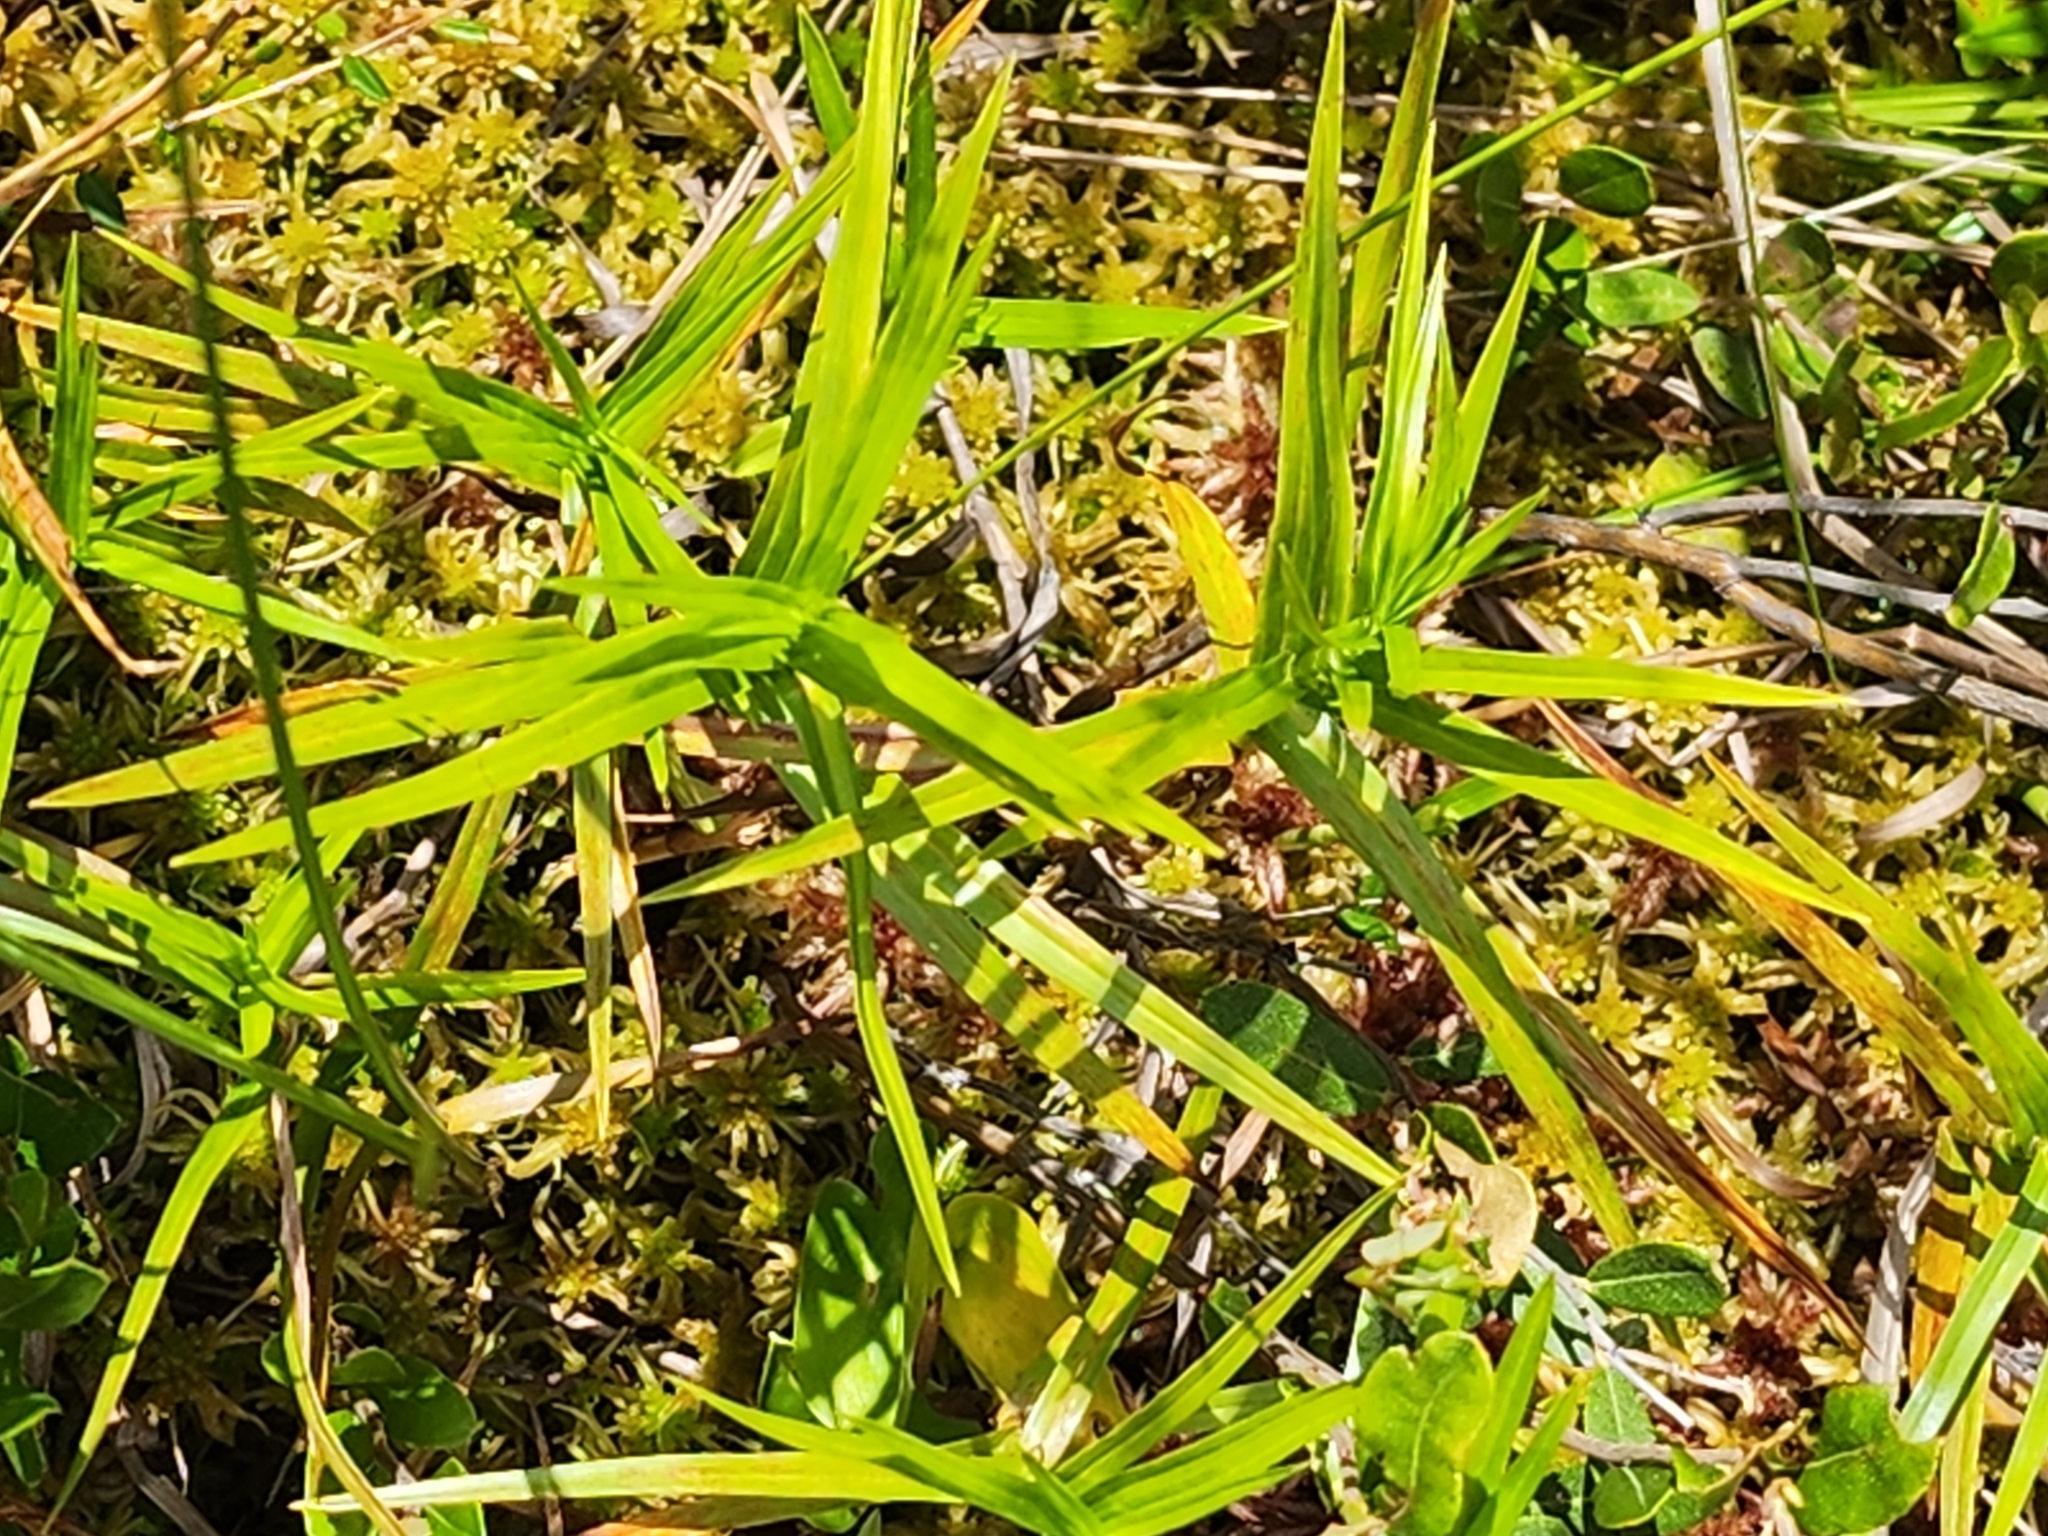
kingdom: Plantae
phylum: Tracheophyta
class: Liliopsida
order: Poales
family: Cyperaceae
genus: Dulichium
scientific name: Dulichium arundinaceum
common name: Three-way sedge
